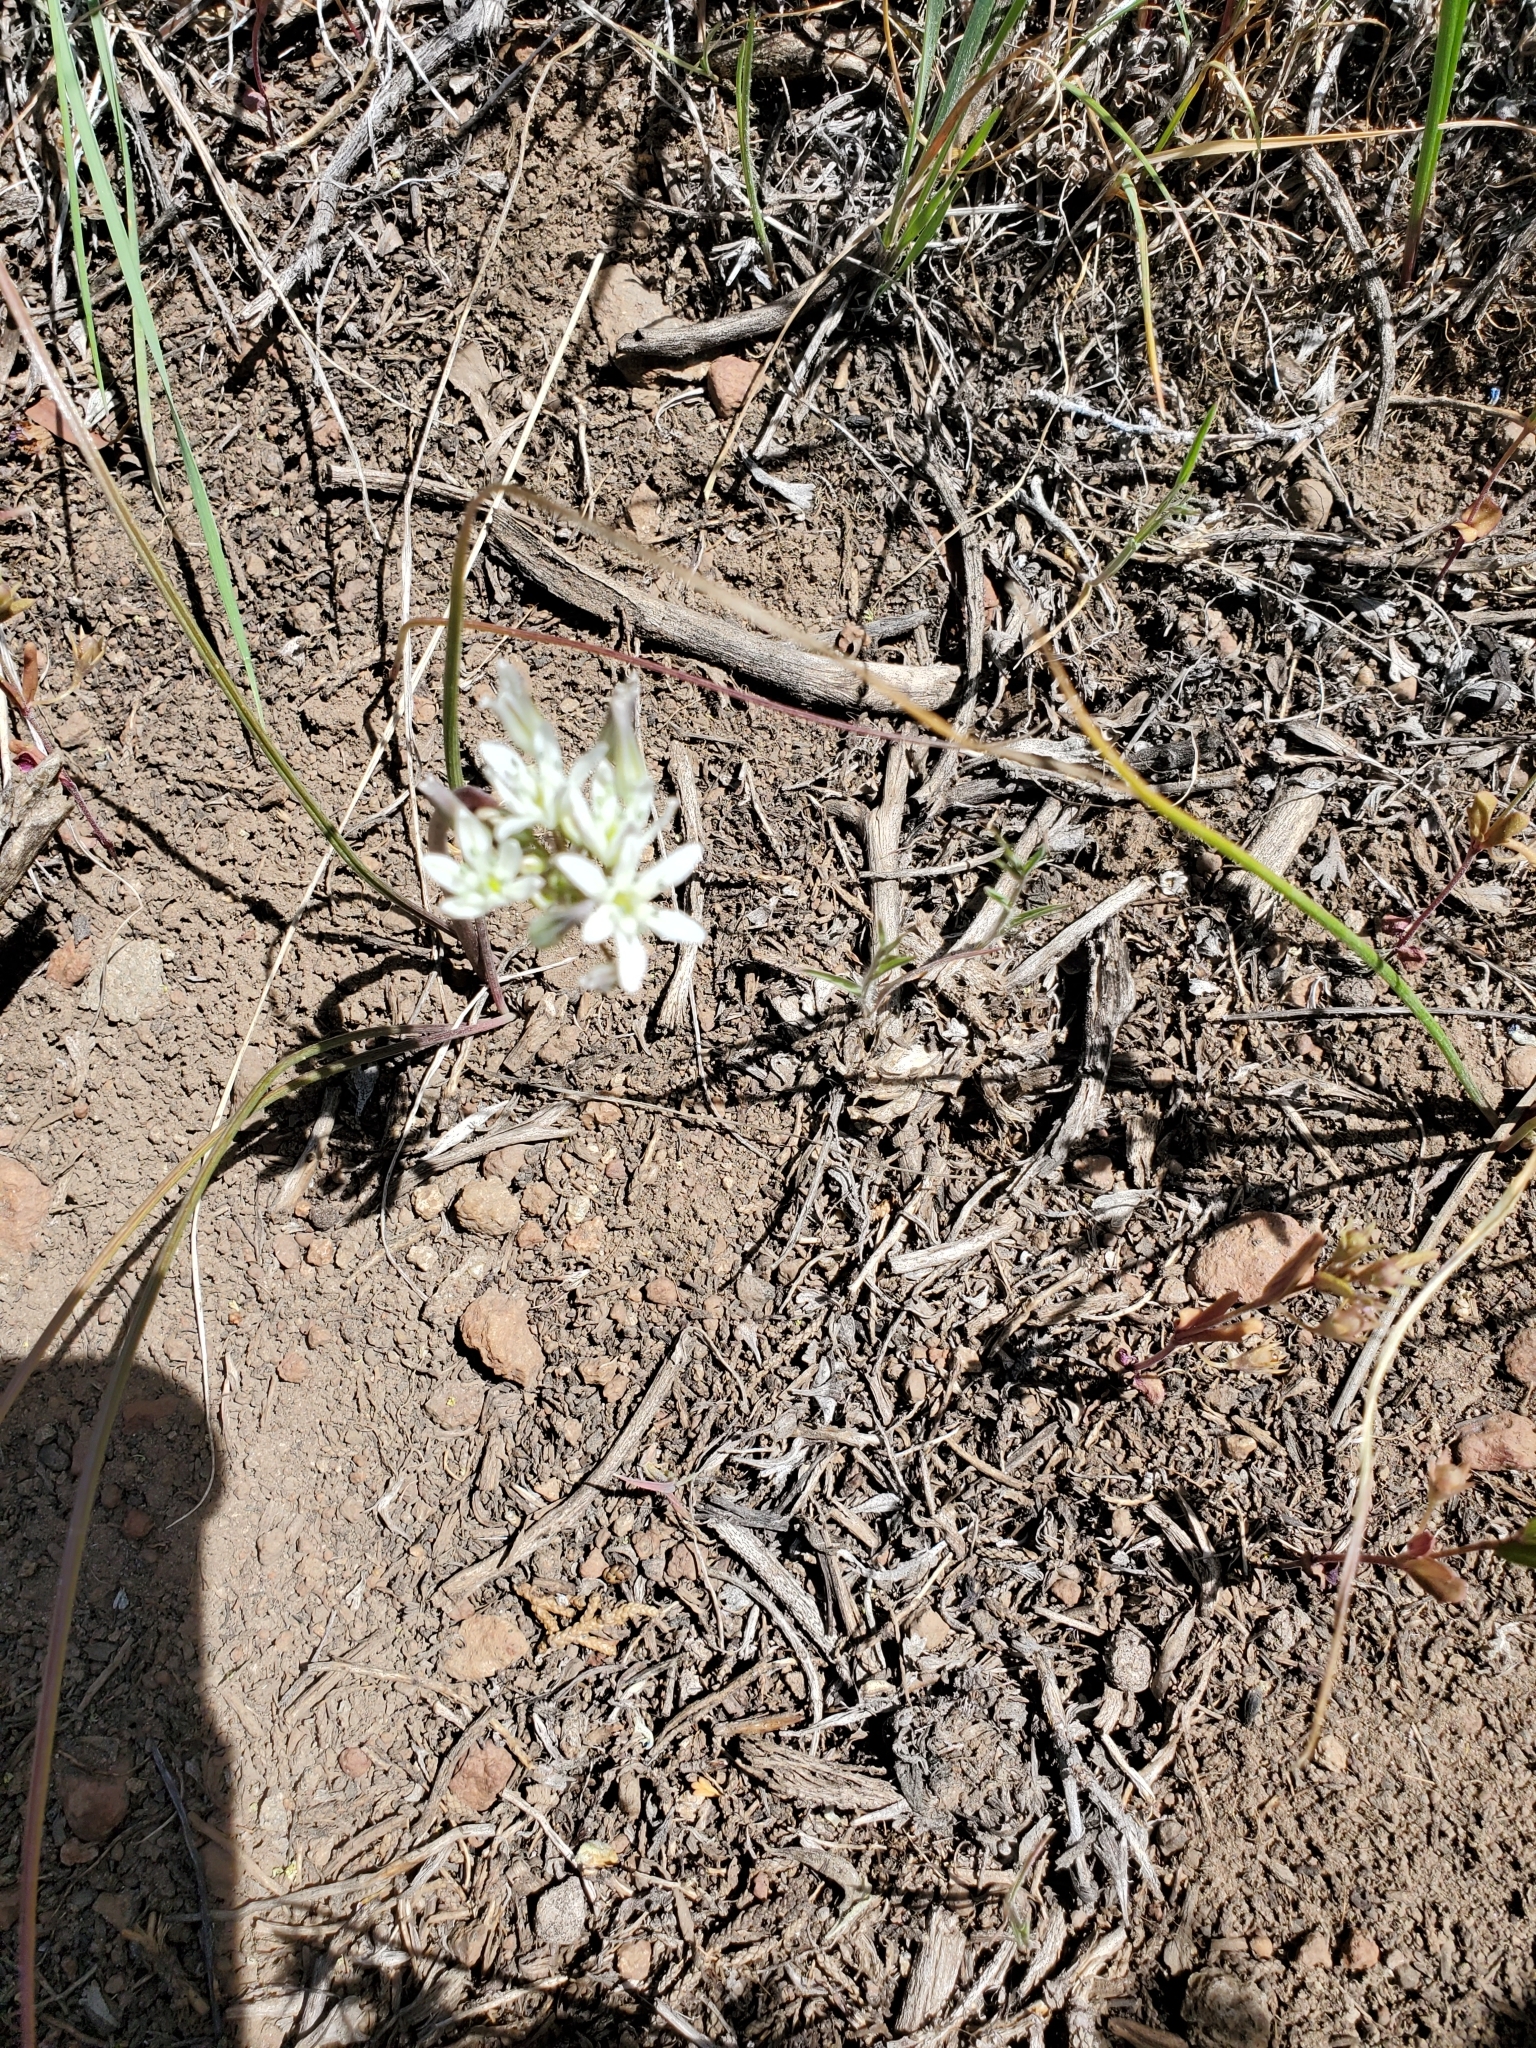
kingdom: Plantae
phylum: Tracheophyta
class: Liliopsida
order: Asparagales
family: Asparagaceae
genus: Muilla
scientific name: Muilla transmontana
